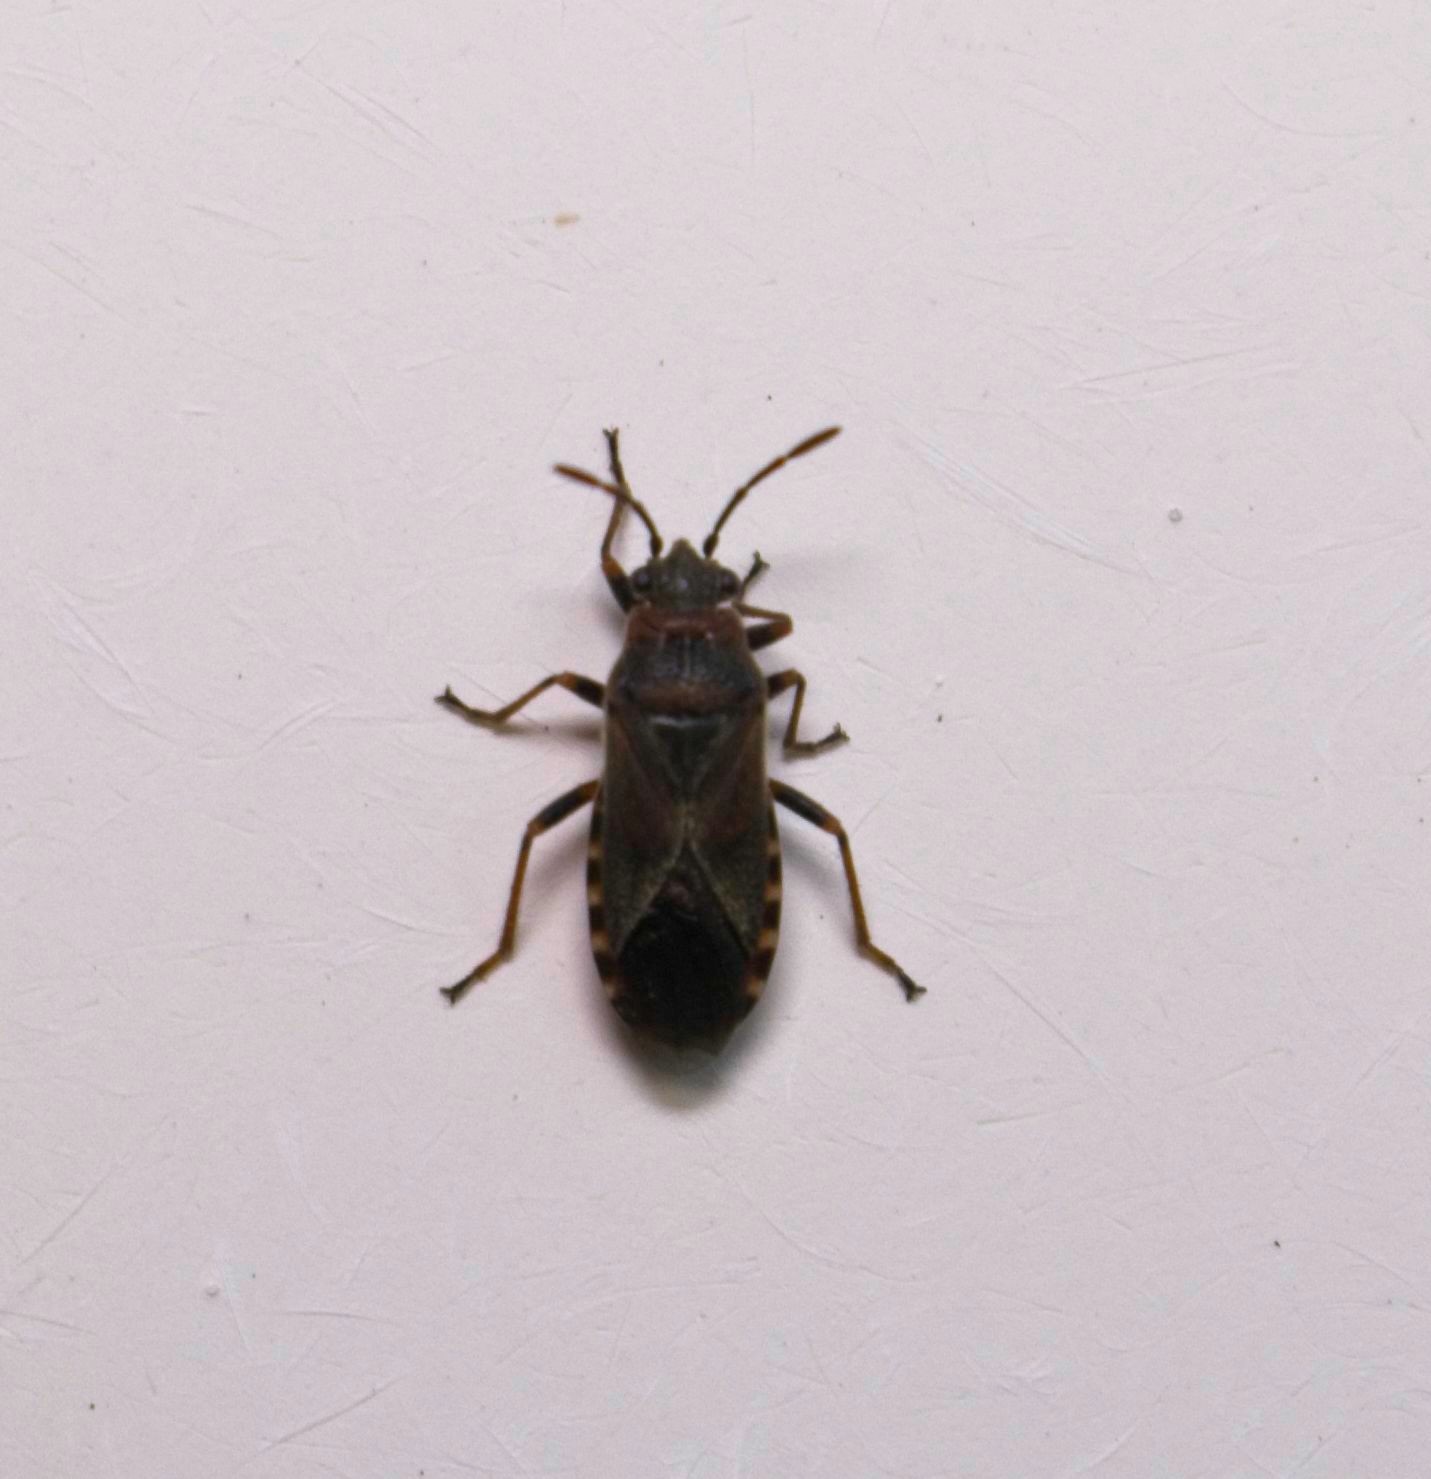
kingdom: Animalia
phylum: Arthropoda
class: Insecta
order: Hemiptera
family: Lygaeidae
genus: Arocatus
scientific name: Arocatus melanocephalus
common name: Lygaeid bug
